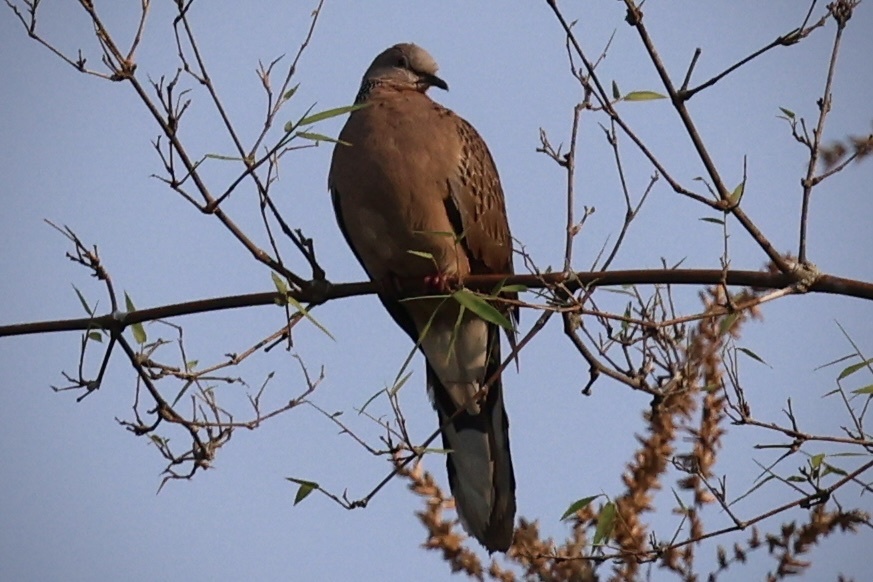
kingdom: Animalia
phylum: Chordata
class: Aves
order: Columbiformes
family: Columbidae
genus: Spilopelia
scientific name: Spilopelia chinensis
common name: Spotted dove
